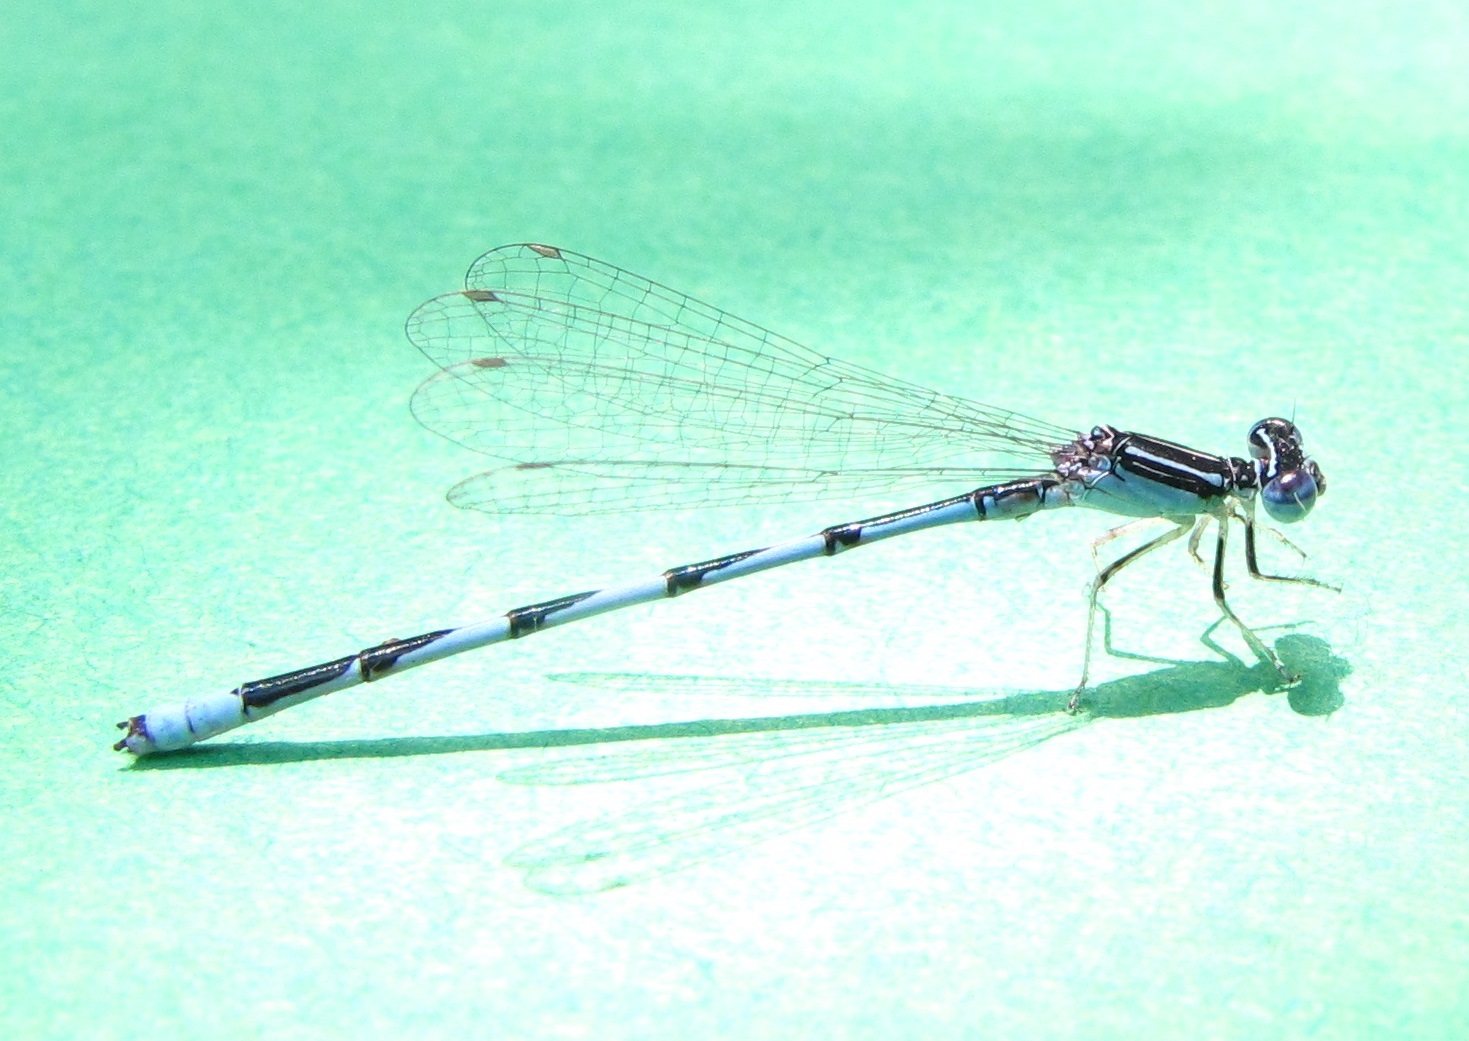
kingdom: Animalia
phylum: Arthropoda
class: Insecta
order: Odonata
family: Coenagrionidae
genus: Enallagma
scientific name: Enallagma basidens
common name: Double-striped bluet
